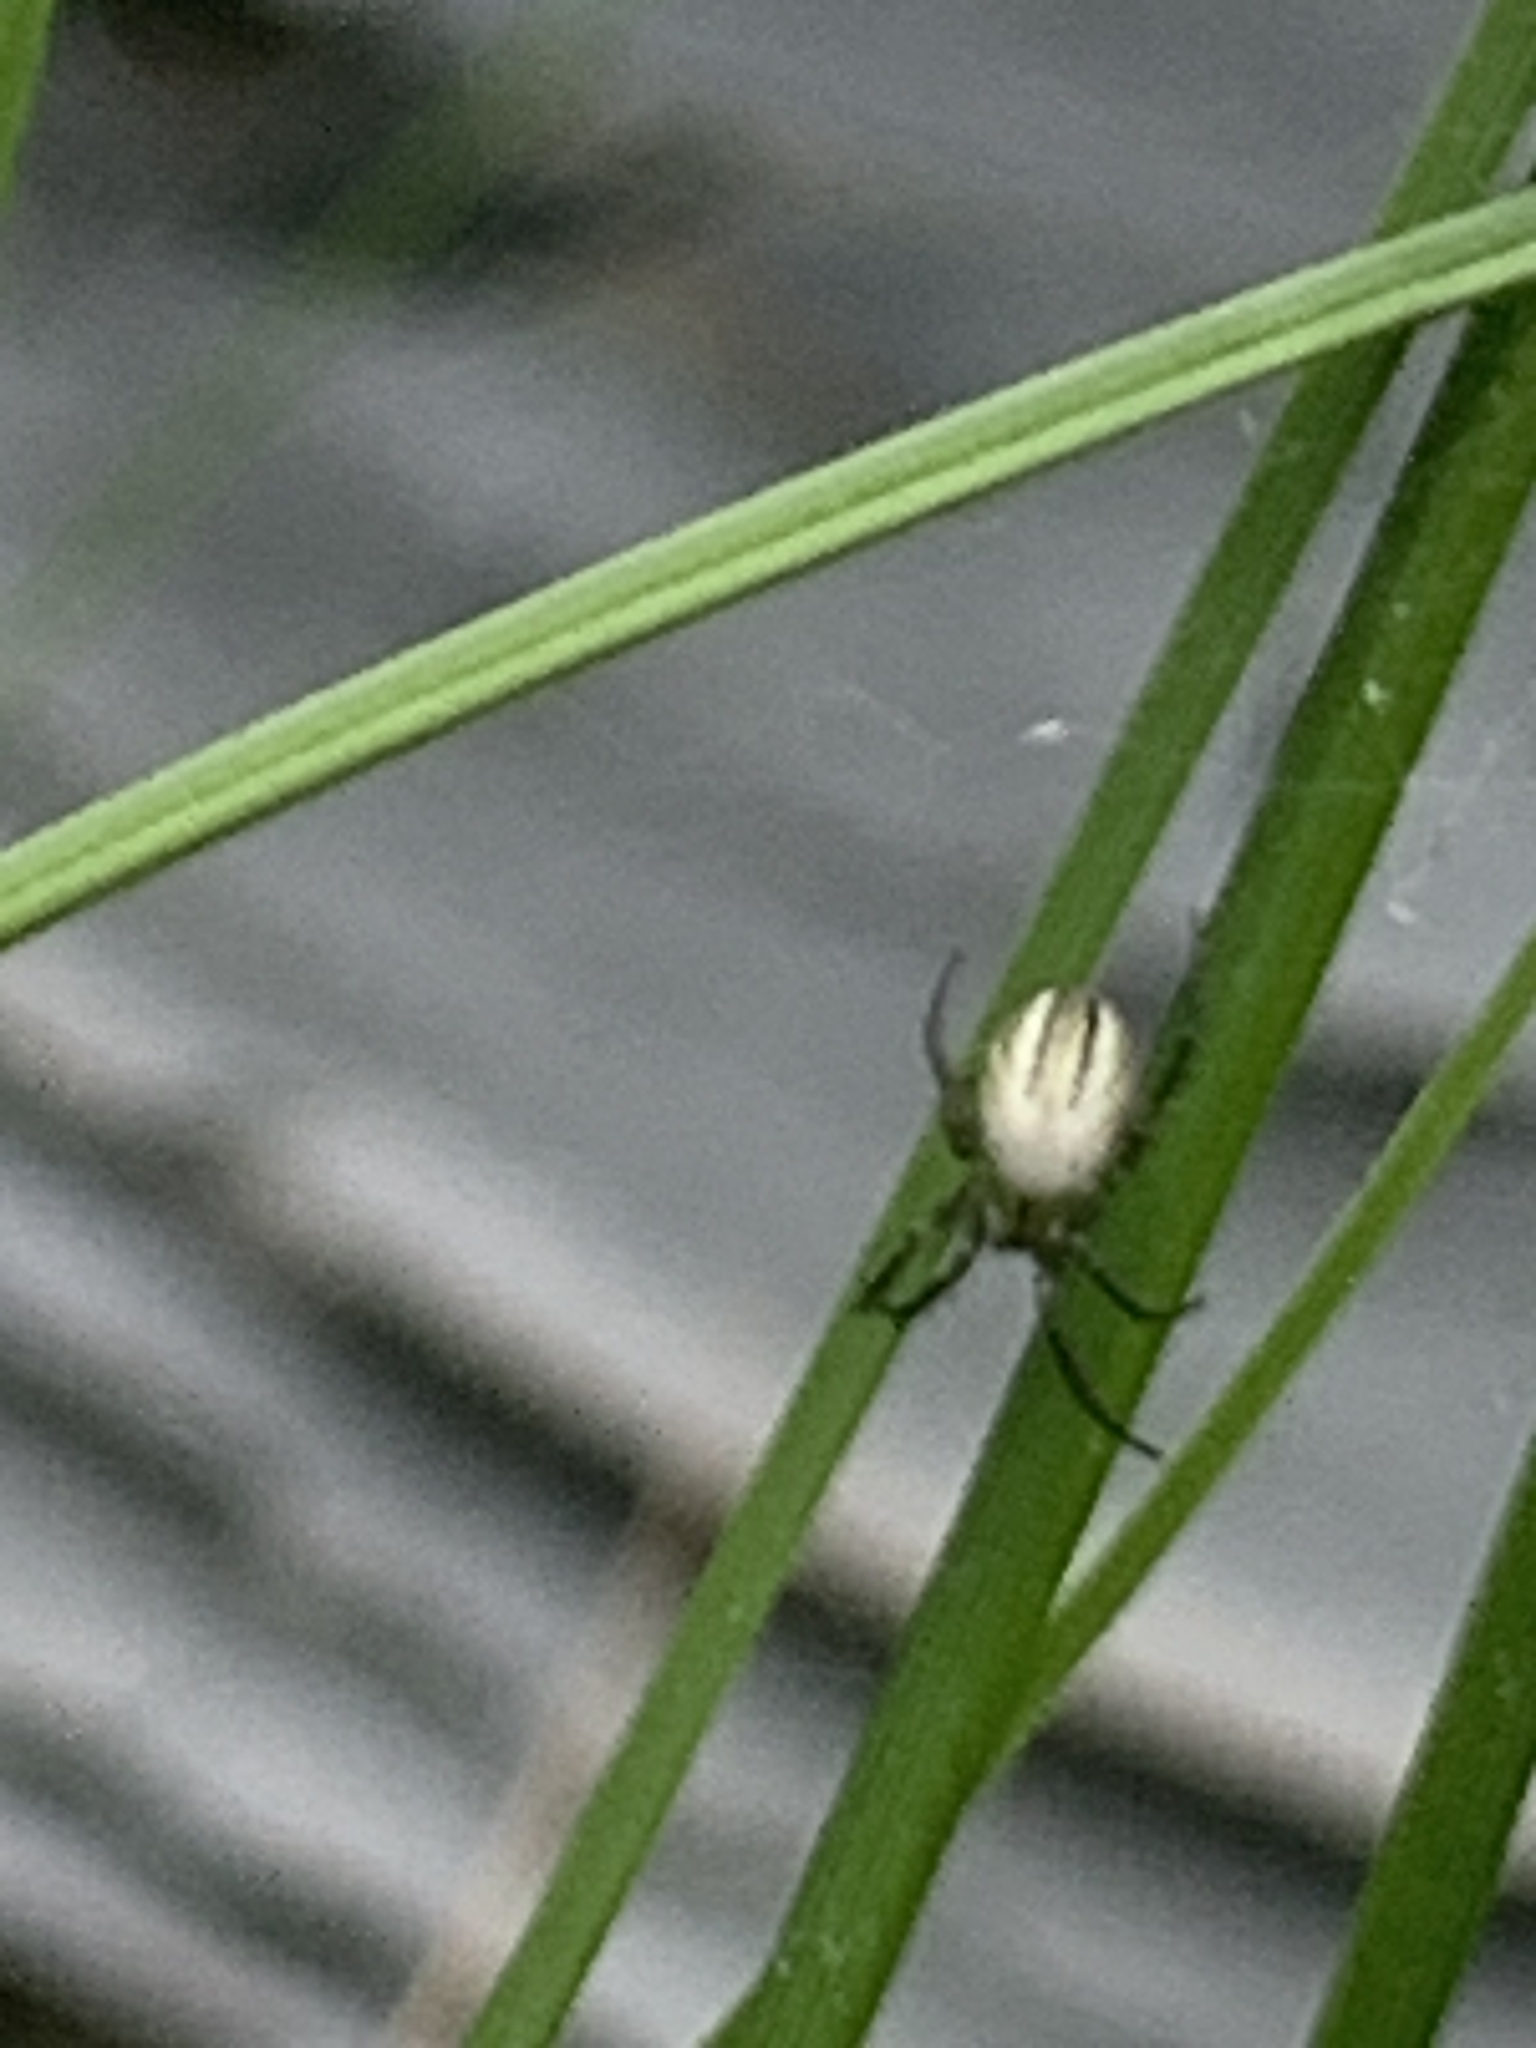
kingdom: Animalia
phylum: Arthropoda
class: Arachnida
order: Araneae
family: Araneidae
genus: Mangora
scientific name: Mangora gibberosa
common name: Lined orbweaver
